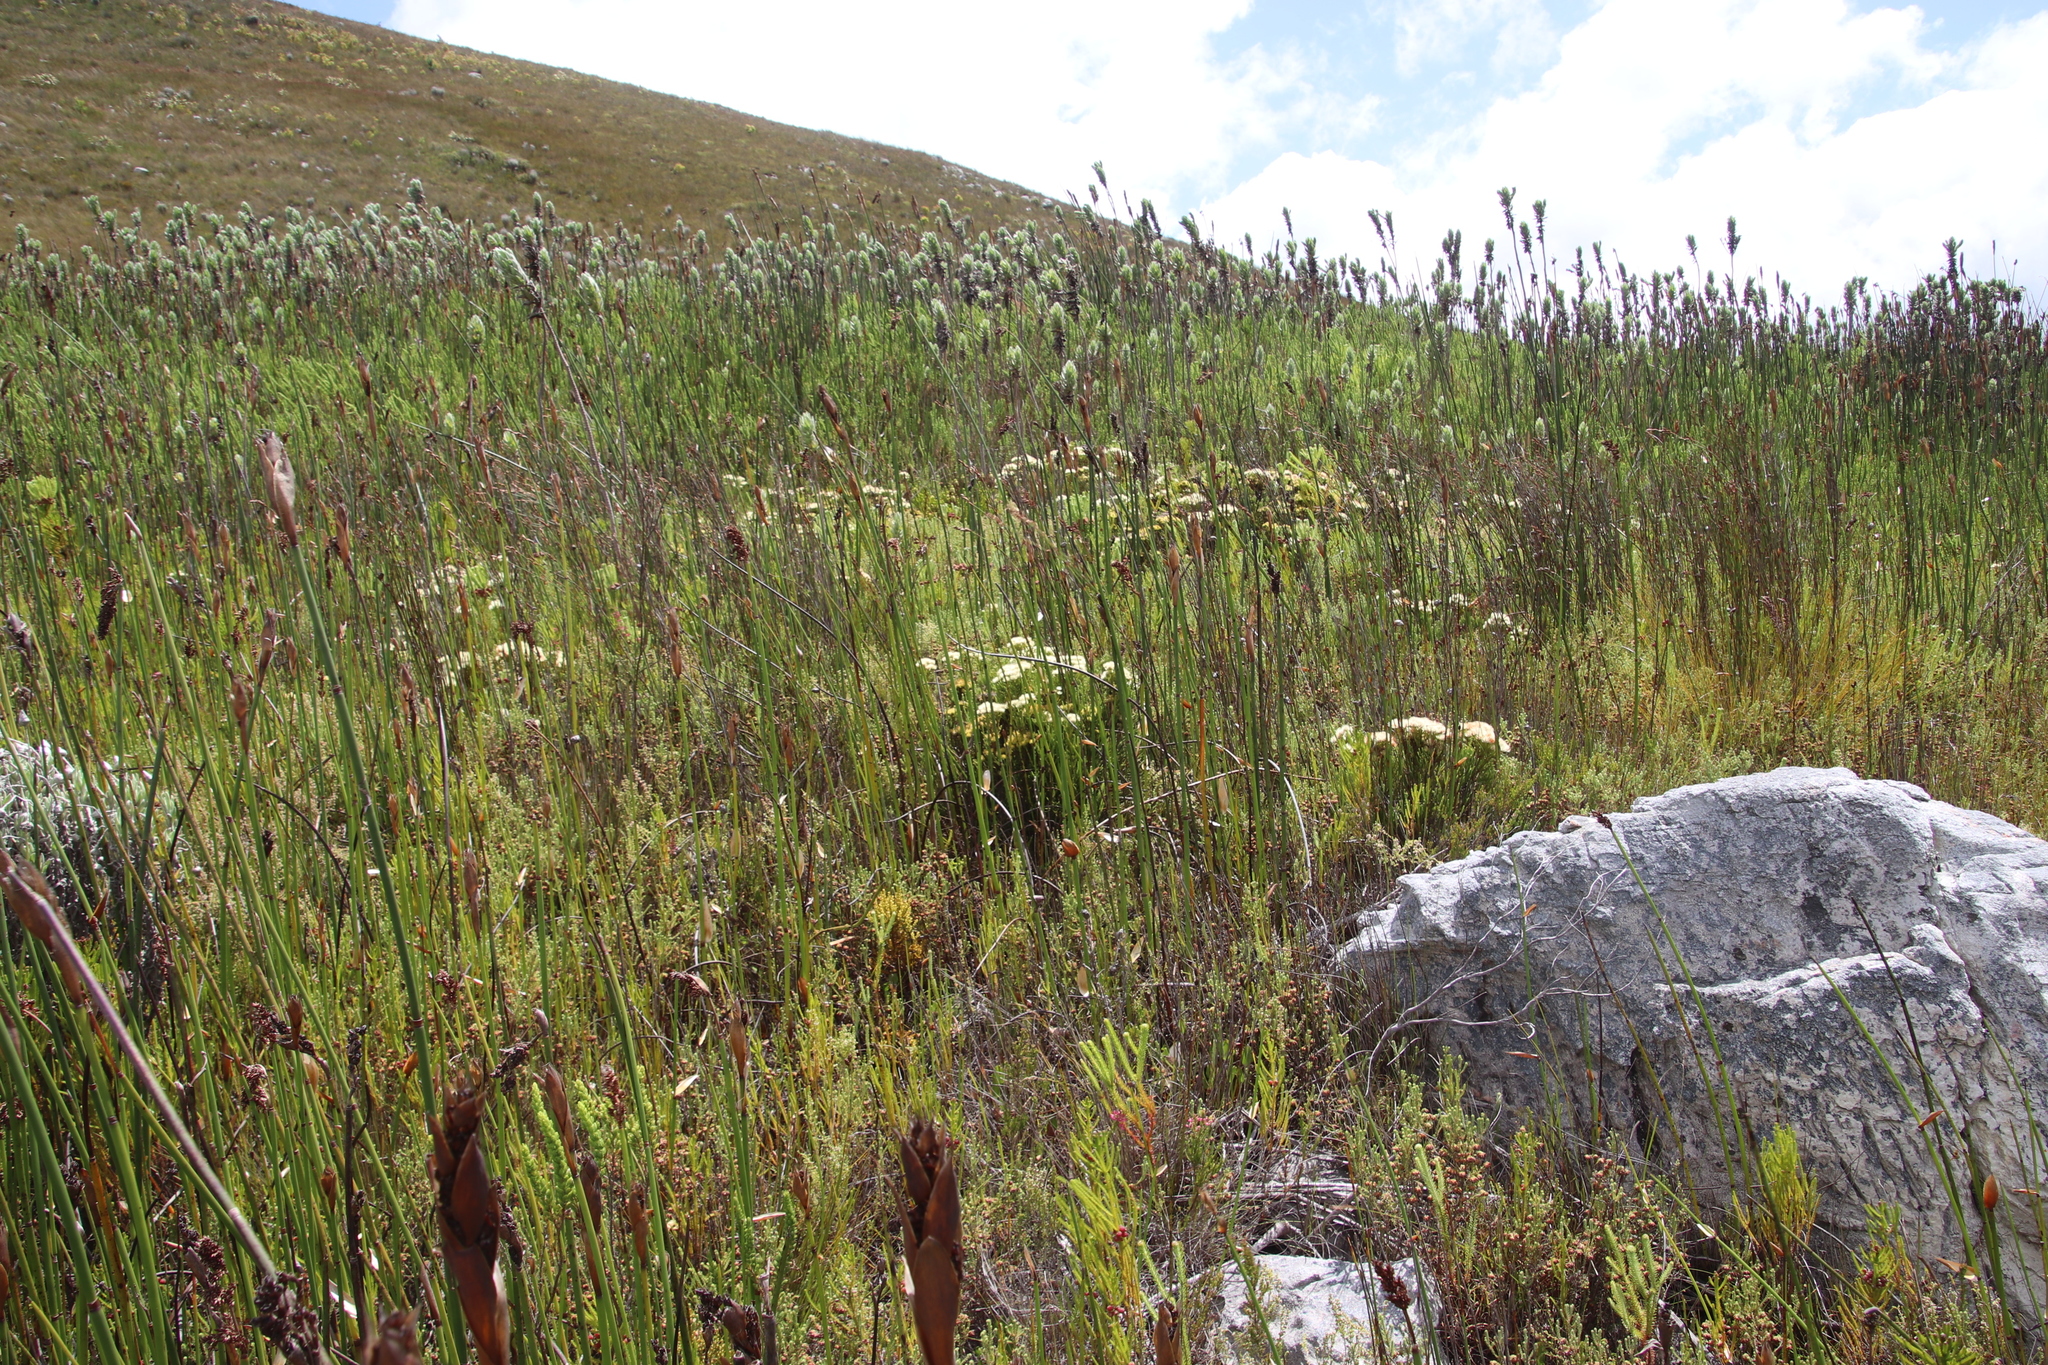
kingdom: Plantae
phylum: Tracheophyta
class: Magnoliopsida
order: Bruniales
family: Bruniaceae
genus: Brunia
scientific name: Brunia paleacea
